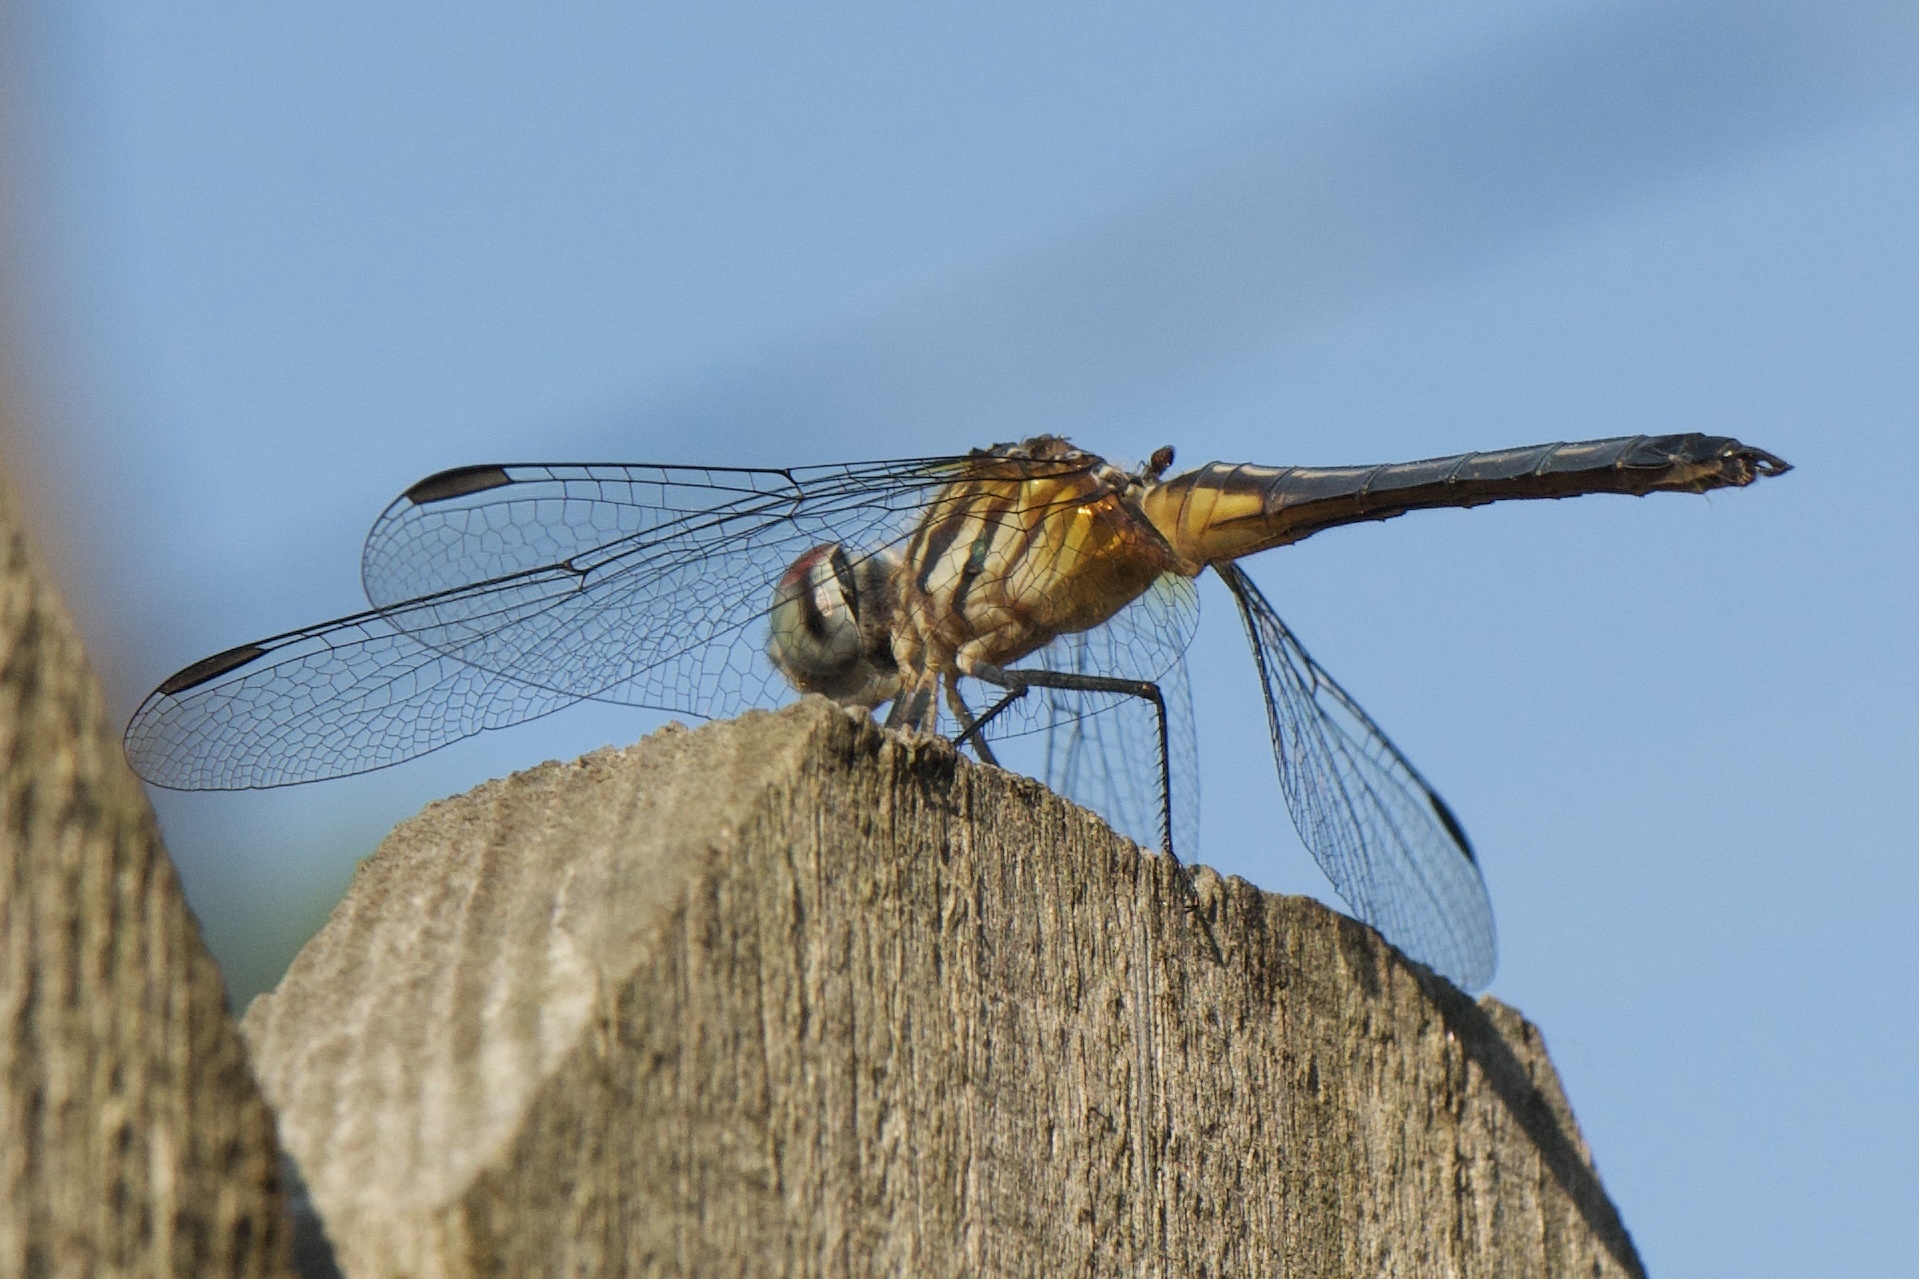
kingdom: Animalia
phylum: Arthropoda
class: Insecta
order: Odonata
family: Libellulidae
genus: Pachydiplax
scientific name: Pachydiplax longipennis
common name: Blue dasher
